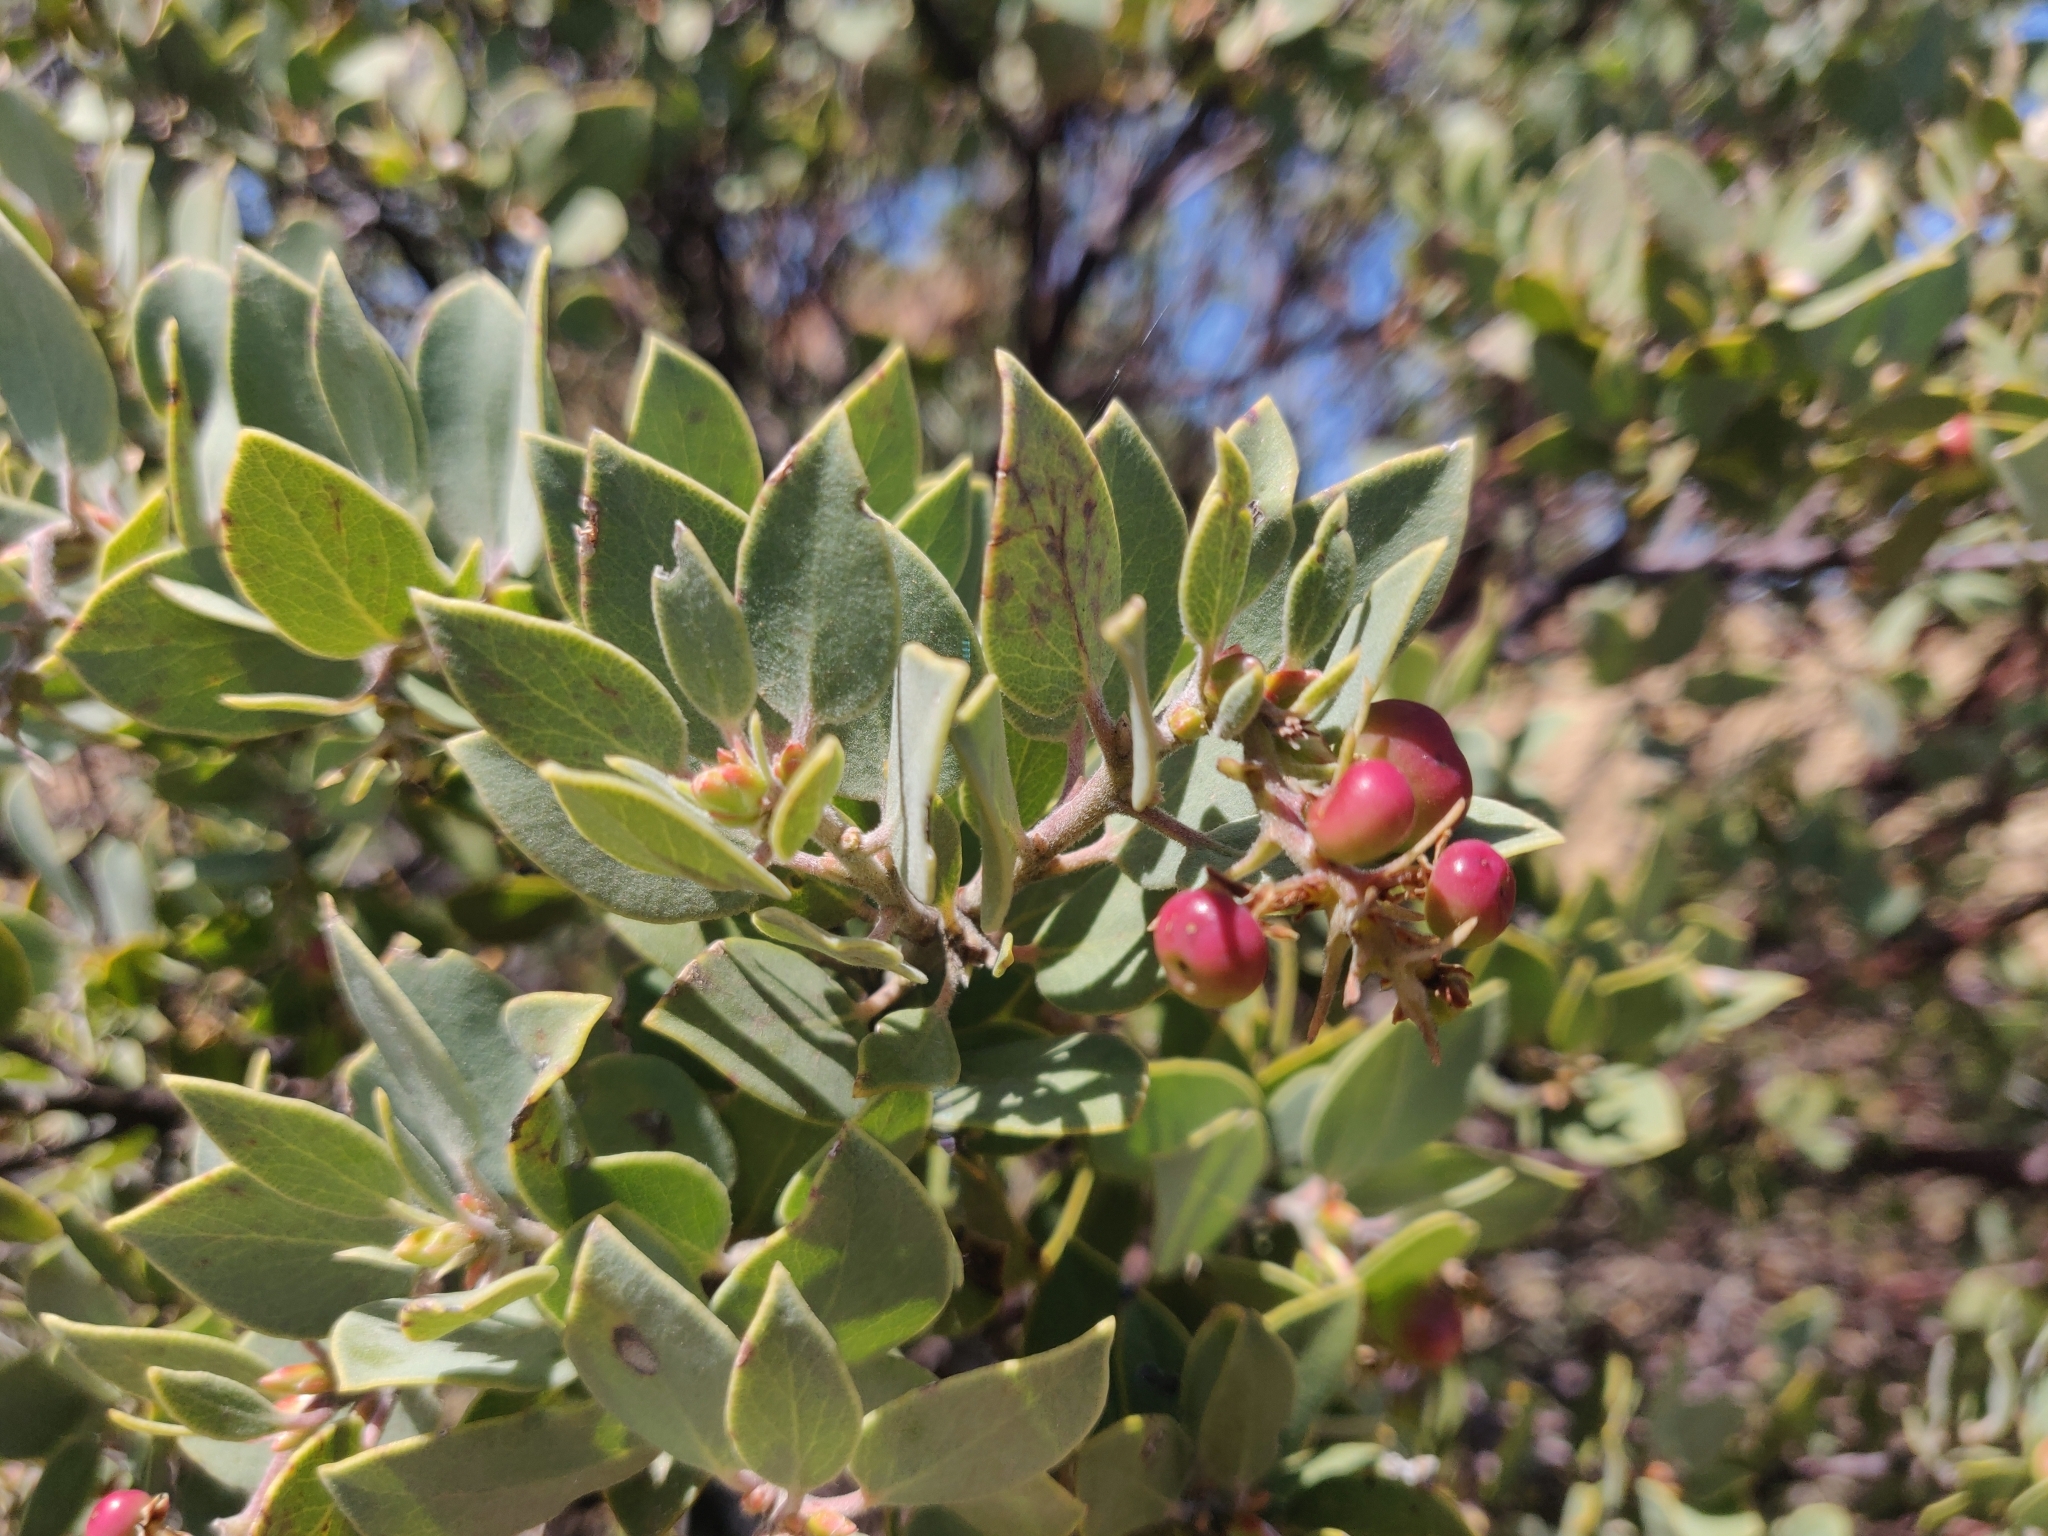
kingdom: Plantae
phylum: Tracheophyta
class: Magnoliopsida
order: Ericales
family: Ericaceae
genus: Arctostaphylos
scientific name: Arctostaphylos obispoensis
